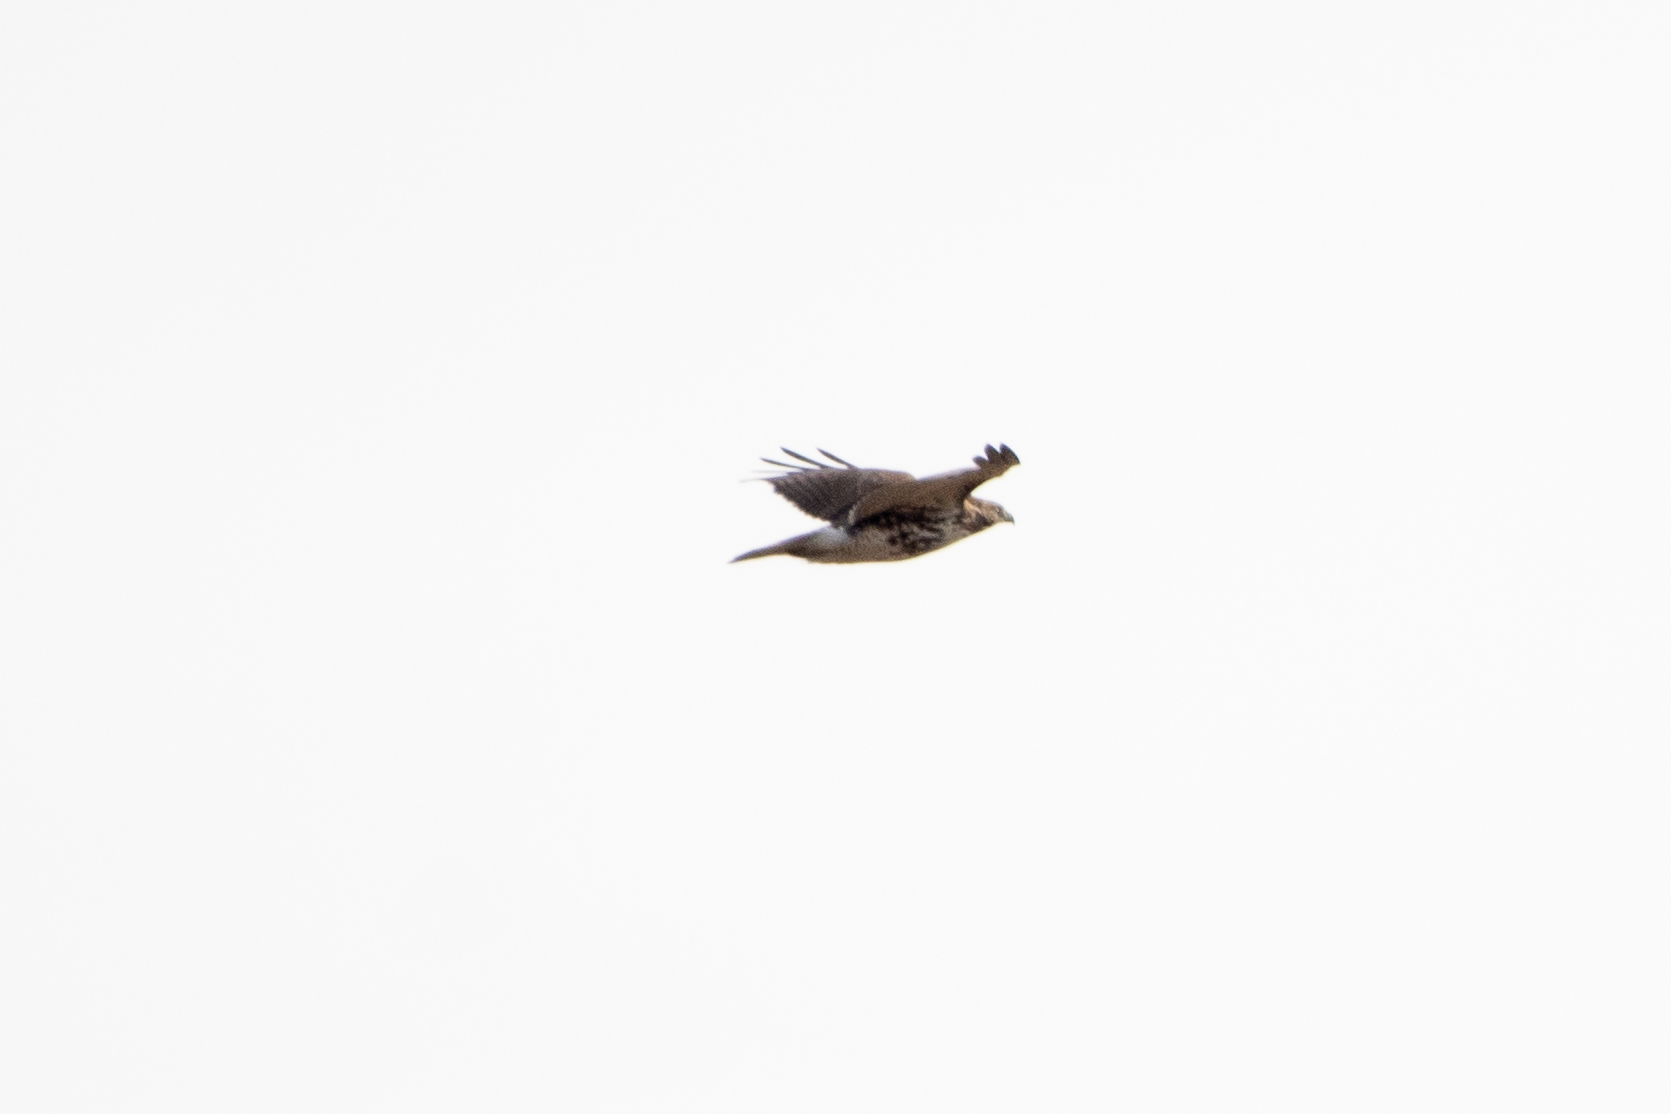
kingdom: Animalia
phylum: Chordata
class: Aves
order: Accipitriformes
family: Accipitridae
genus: Buteo
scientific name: Buteo jamaicensis
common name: Red-tailed hawk
